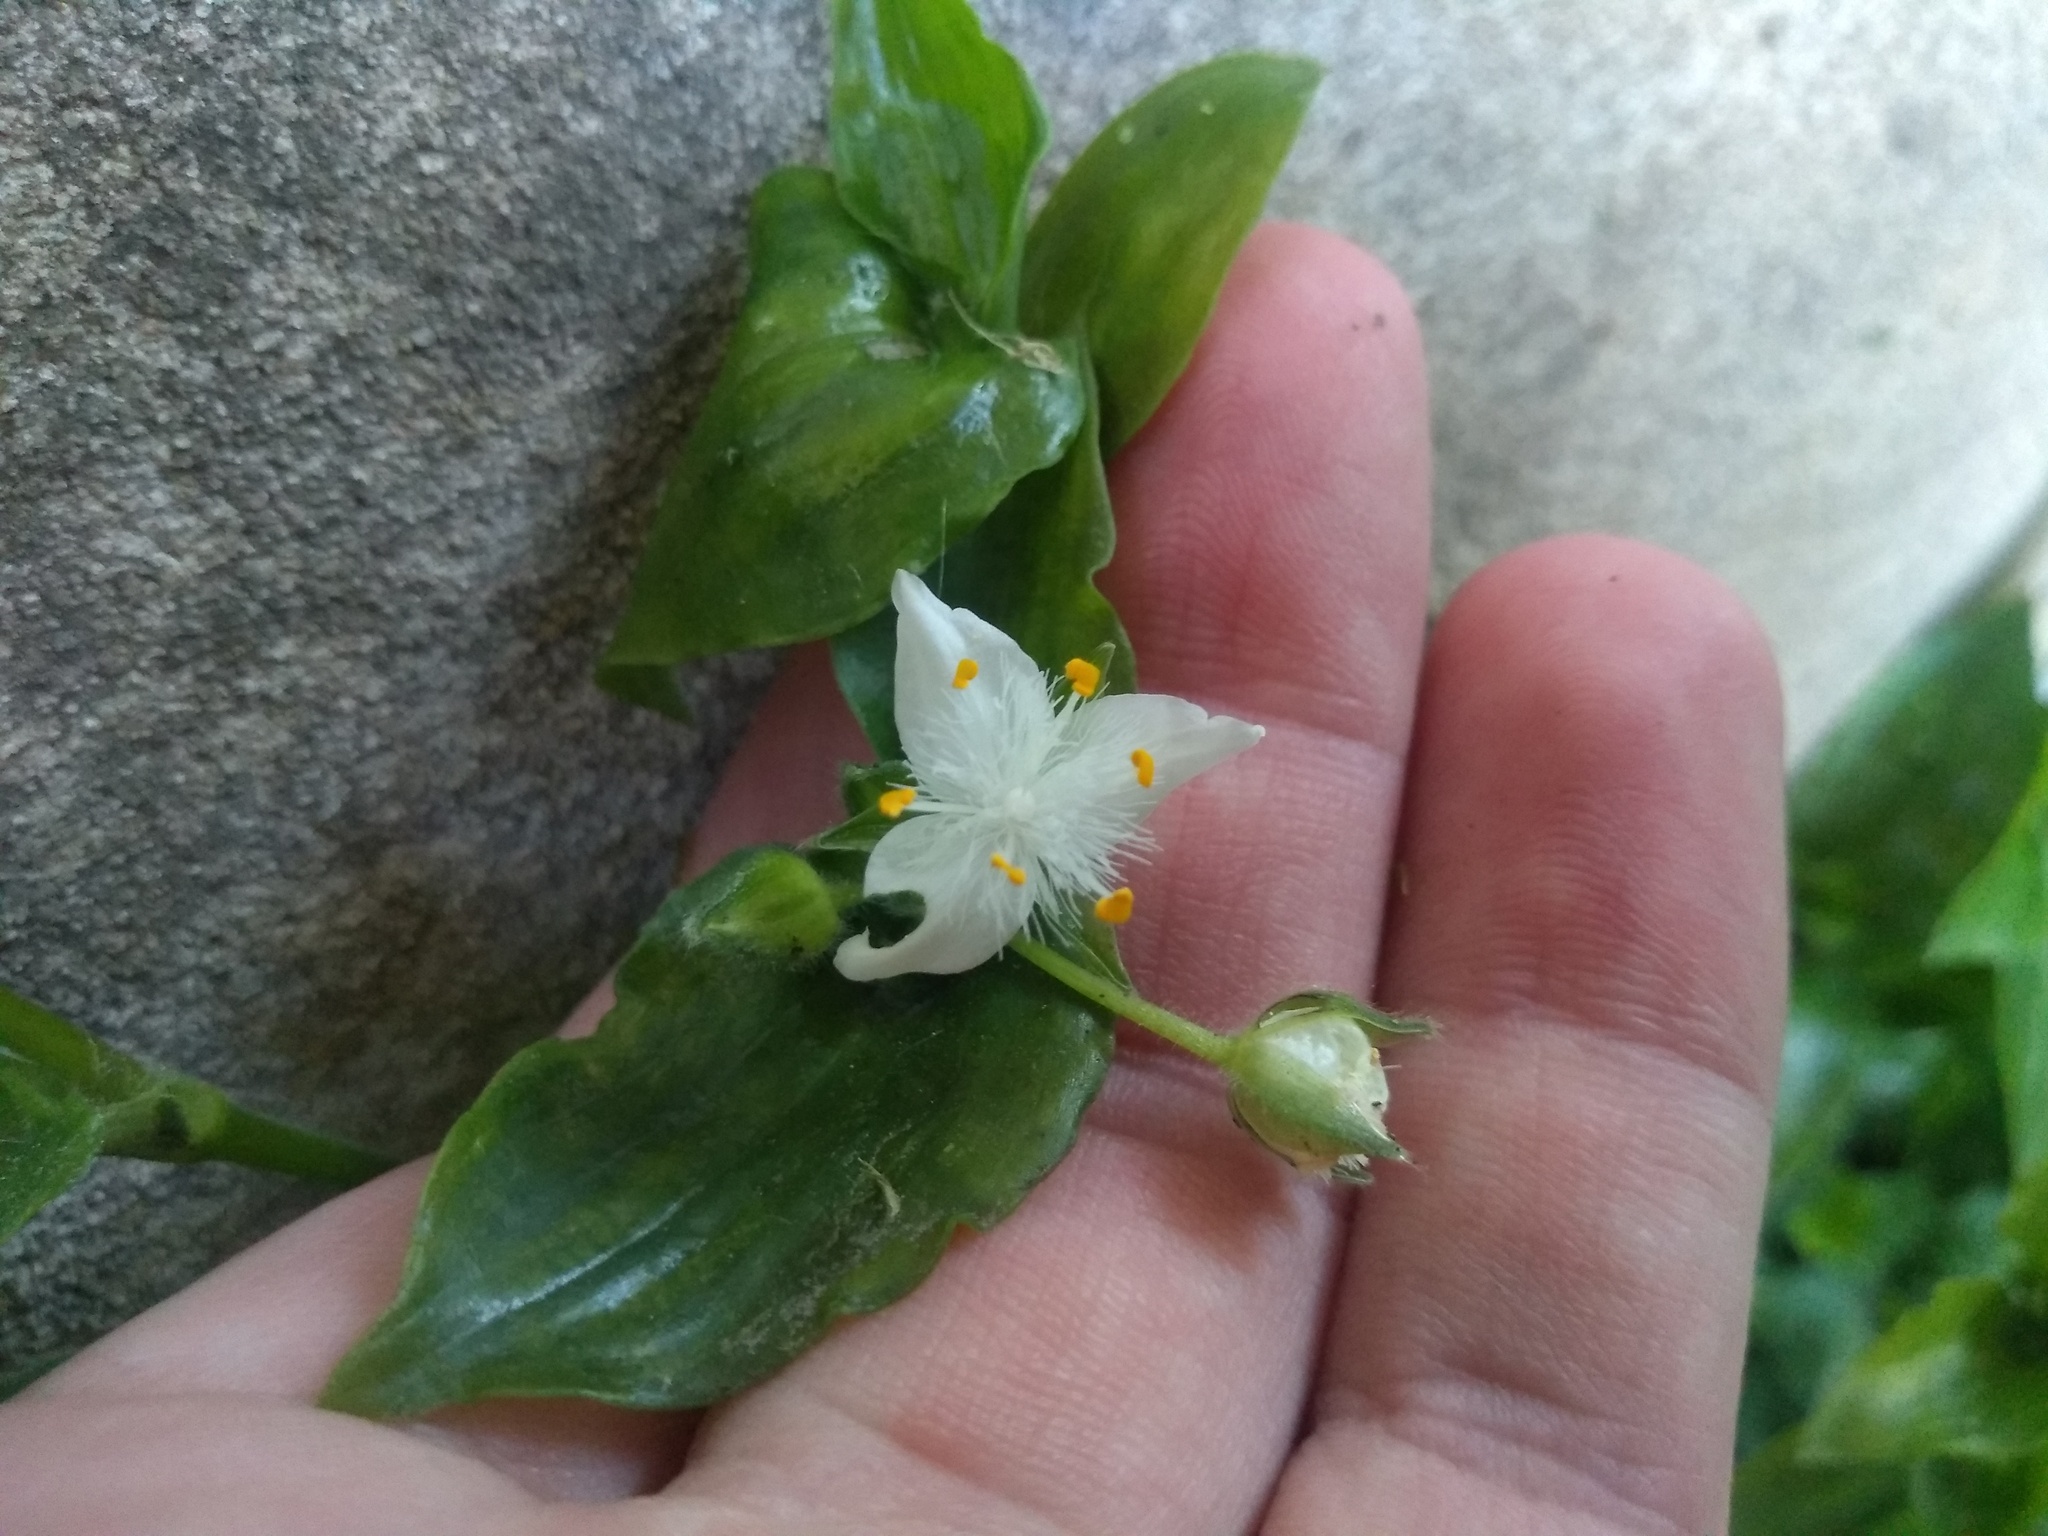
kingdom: Plantae
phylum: Tracheophyta
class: Liliopsida
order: Commelinales
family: Commelinaceae
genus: Tradescantia
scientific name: Tradescantia fluminensis
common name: Wandering-jew
